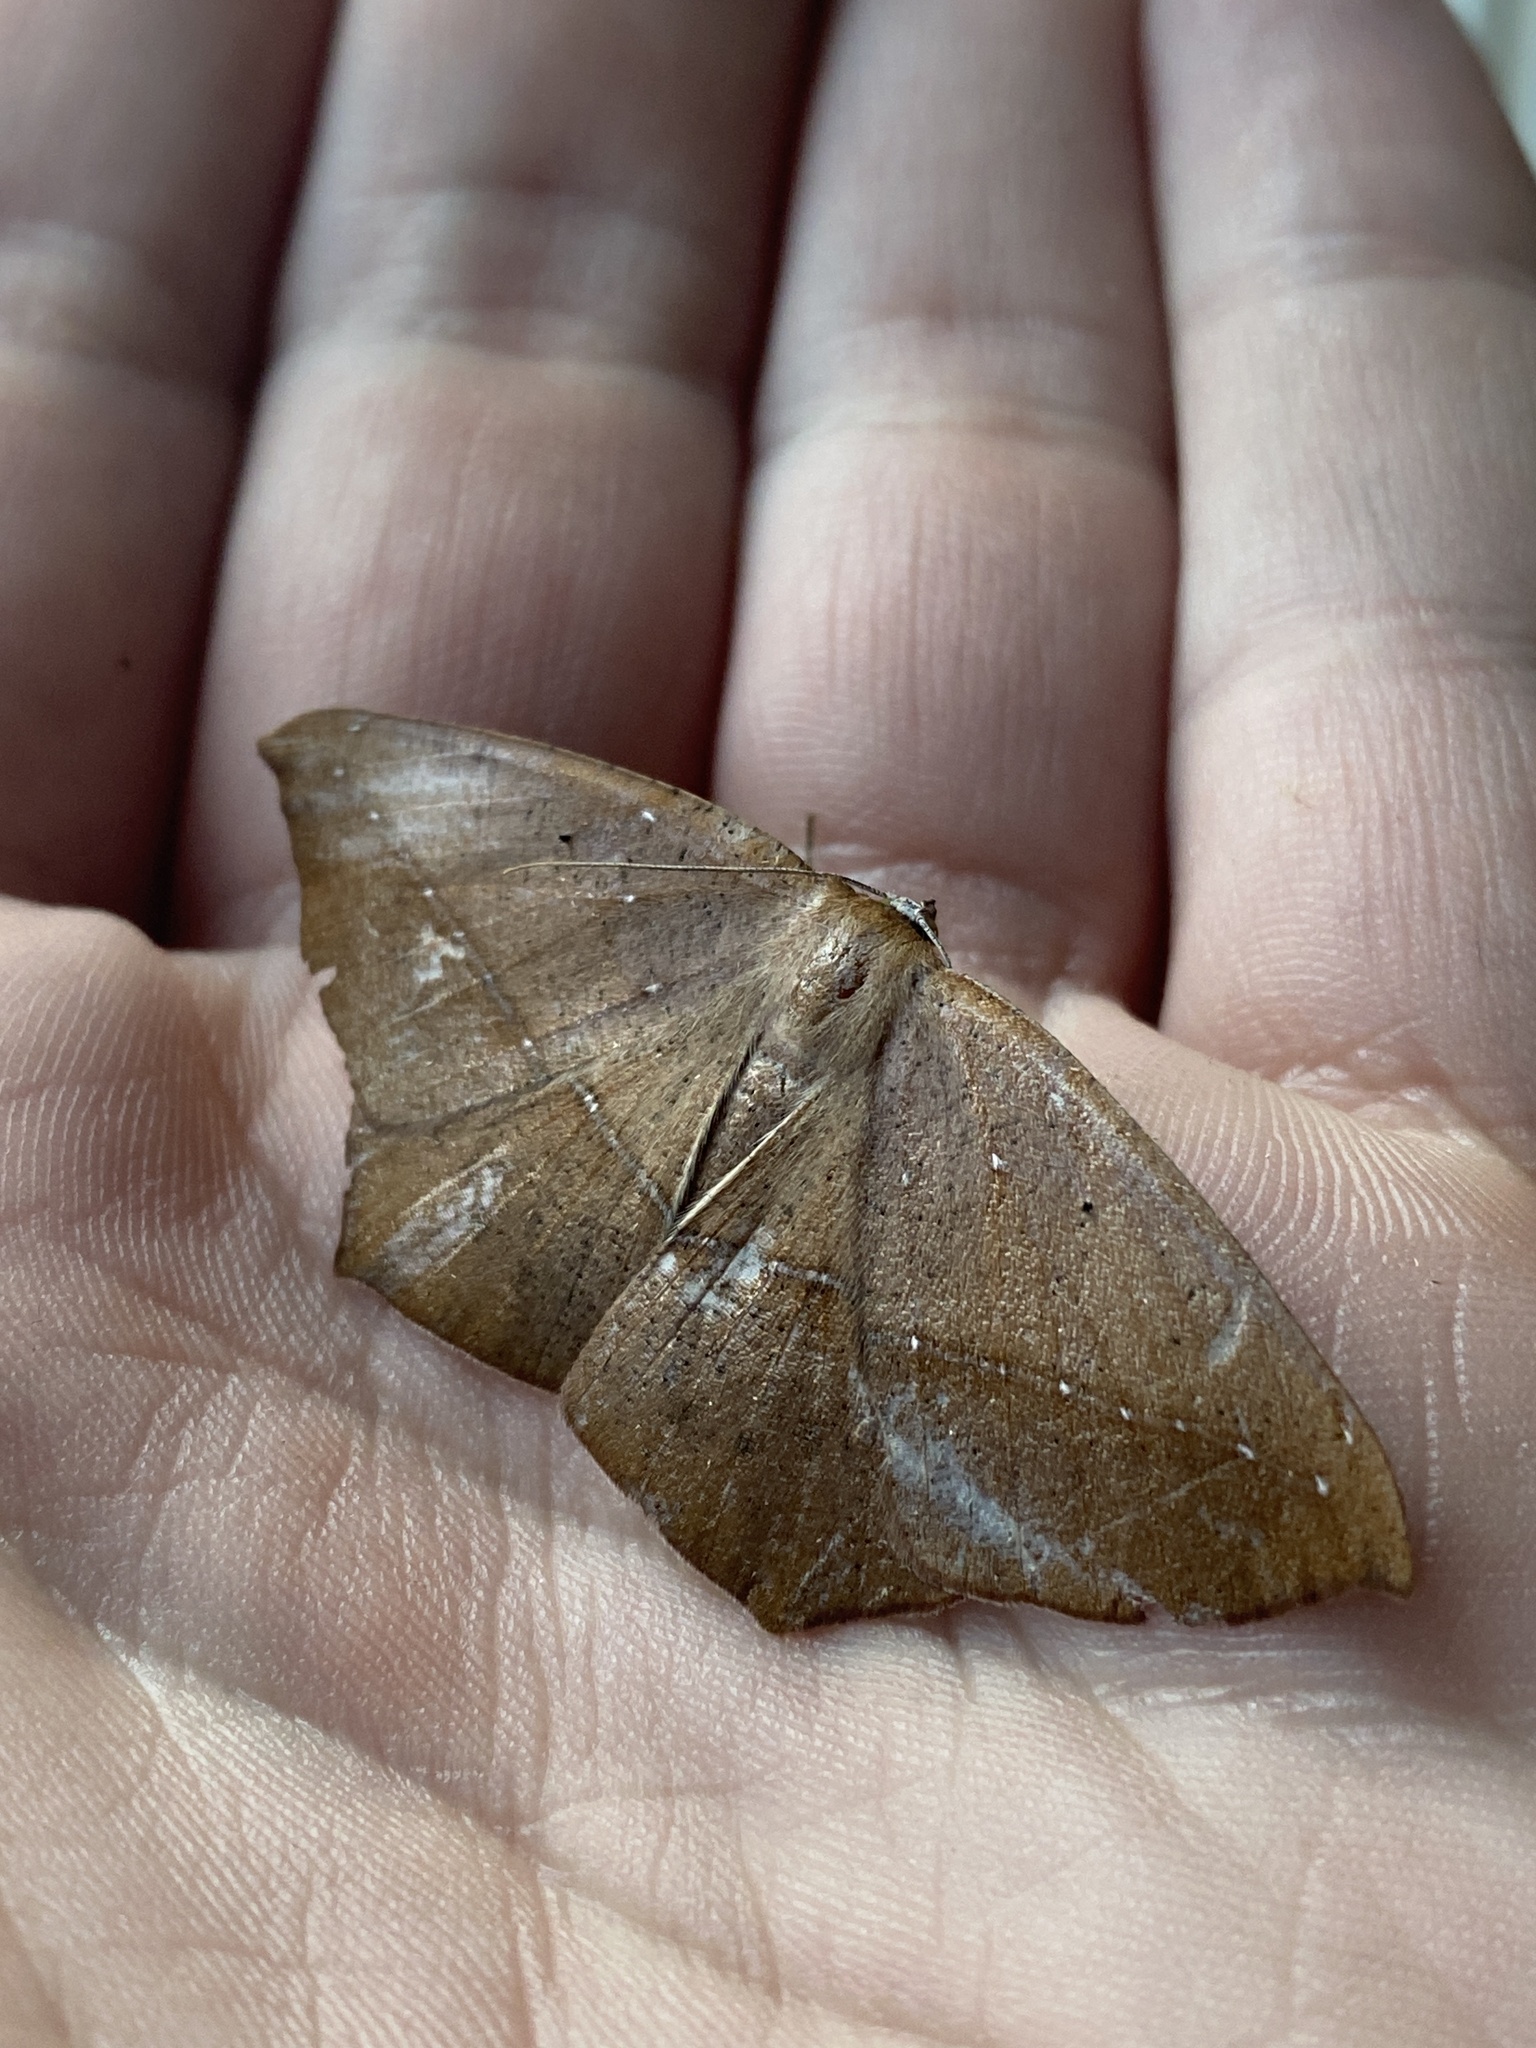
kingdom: Animalia
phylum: Arthropoda
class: Insecta
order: Lepidoptera
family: Geometridae
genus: Prochoerodes
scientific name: Prochoerodes lineola
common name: Large maple spanworm
